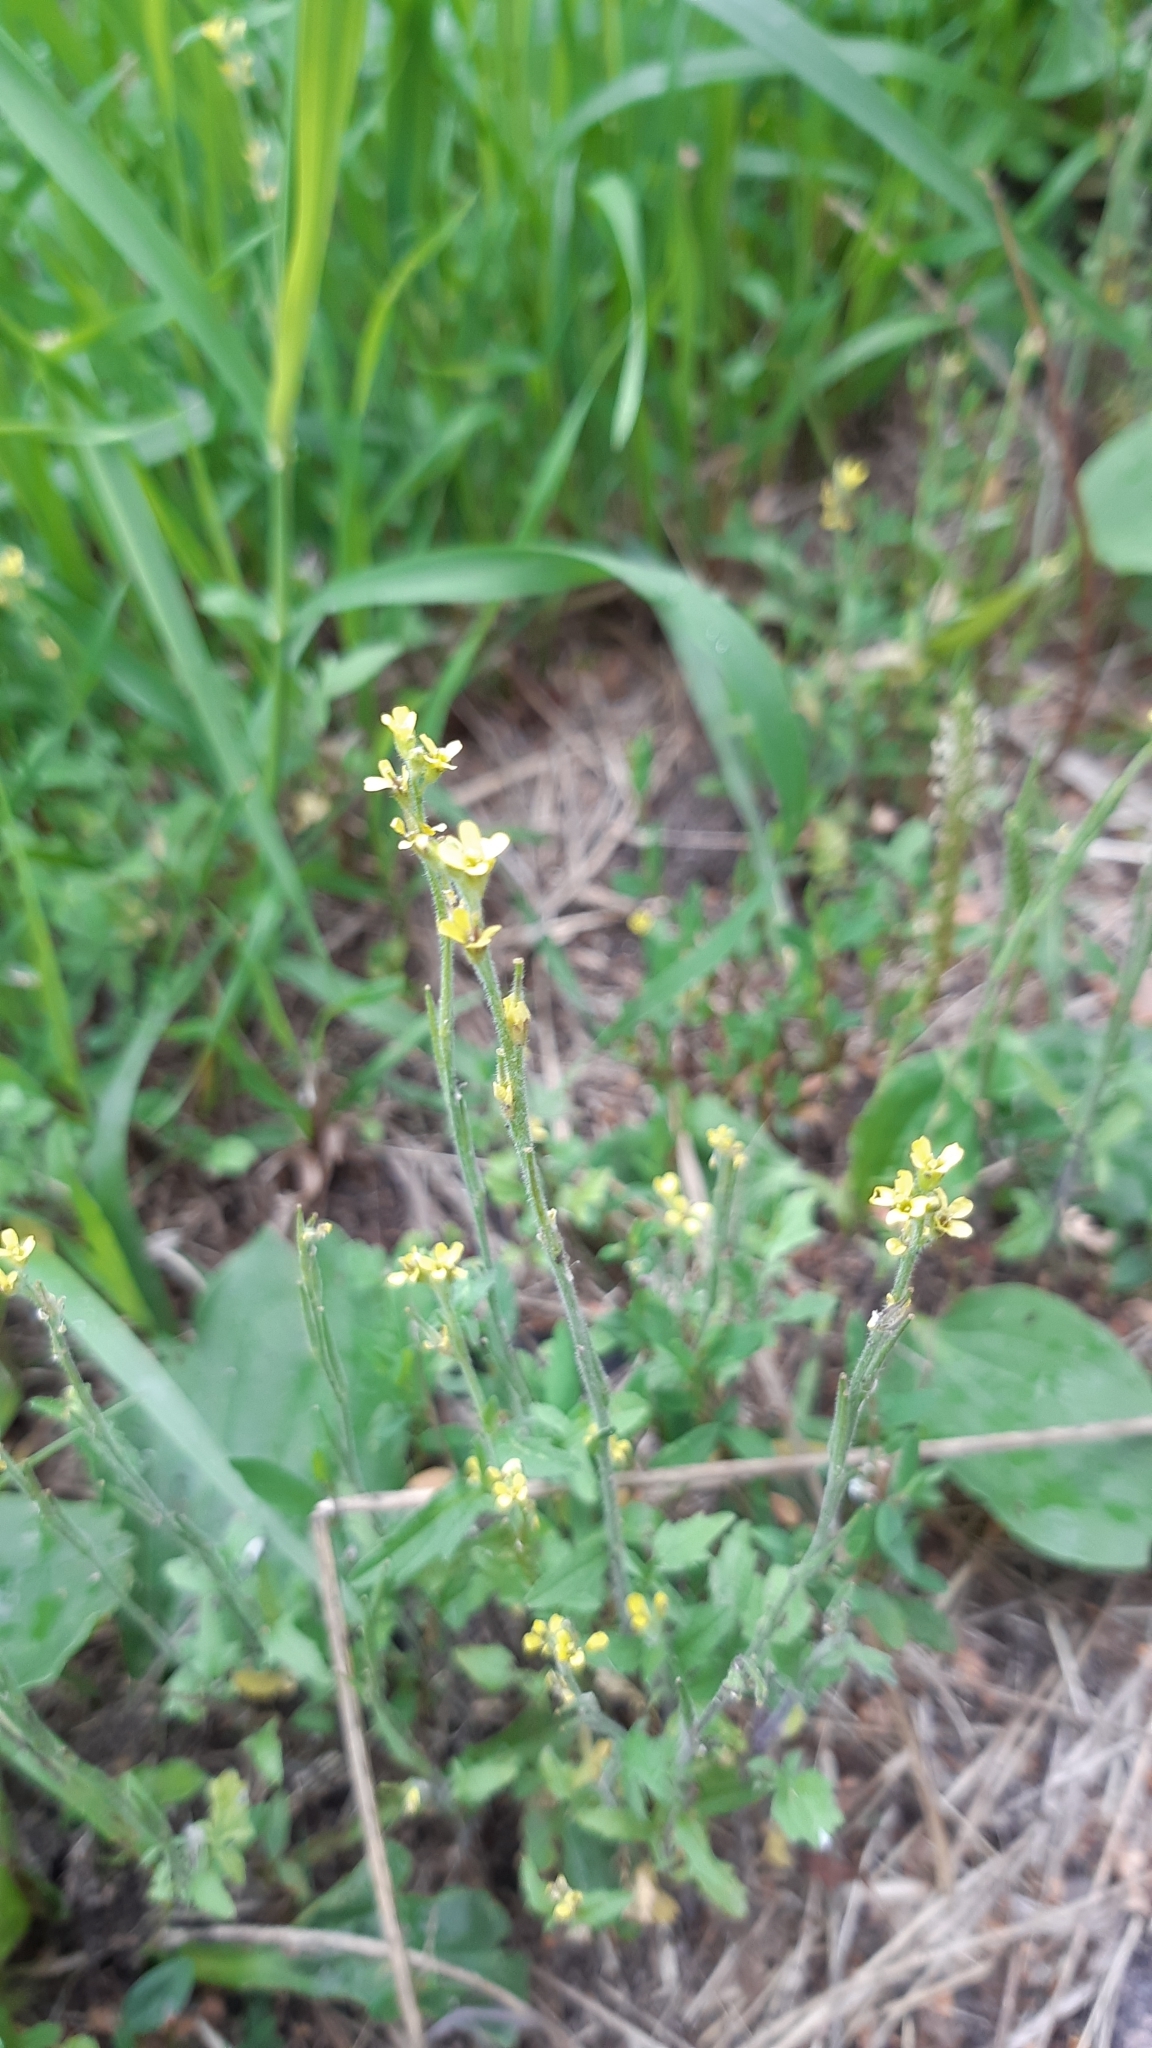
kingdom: Plantae
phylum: Tracheophyta
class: Magnoliopsida
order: Brassicales
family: Brassicaceae
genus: Sisymbrium
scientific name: Sisymbrium officinale
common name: Hedge mustard
